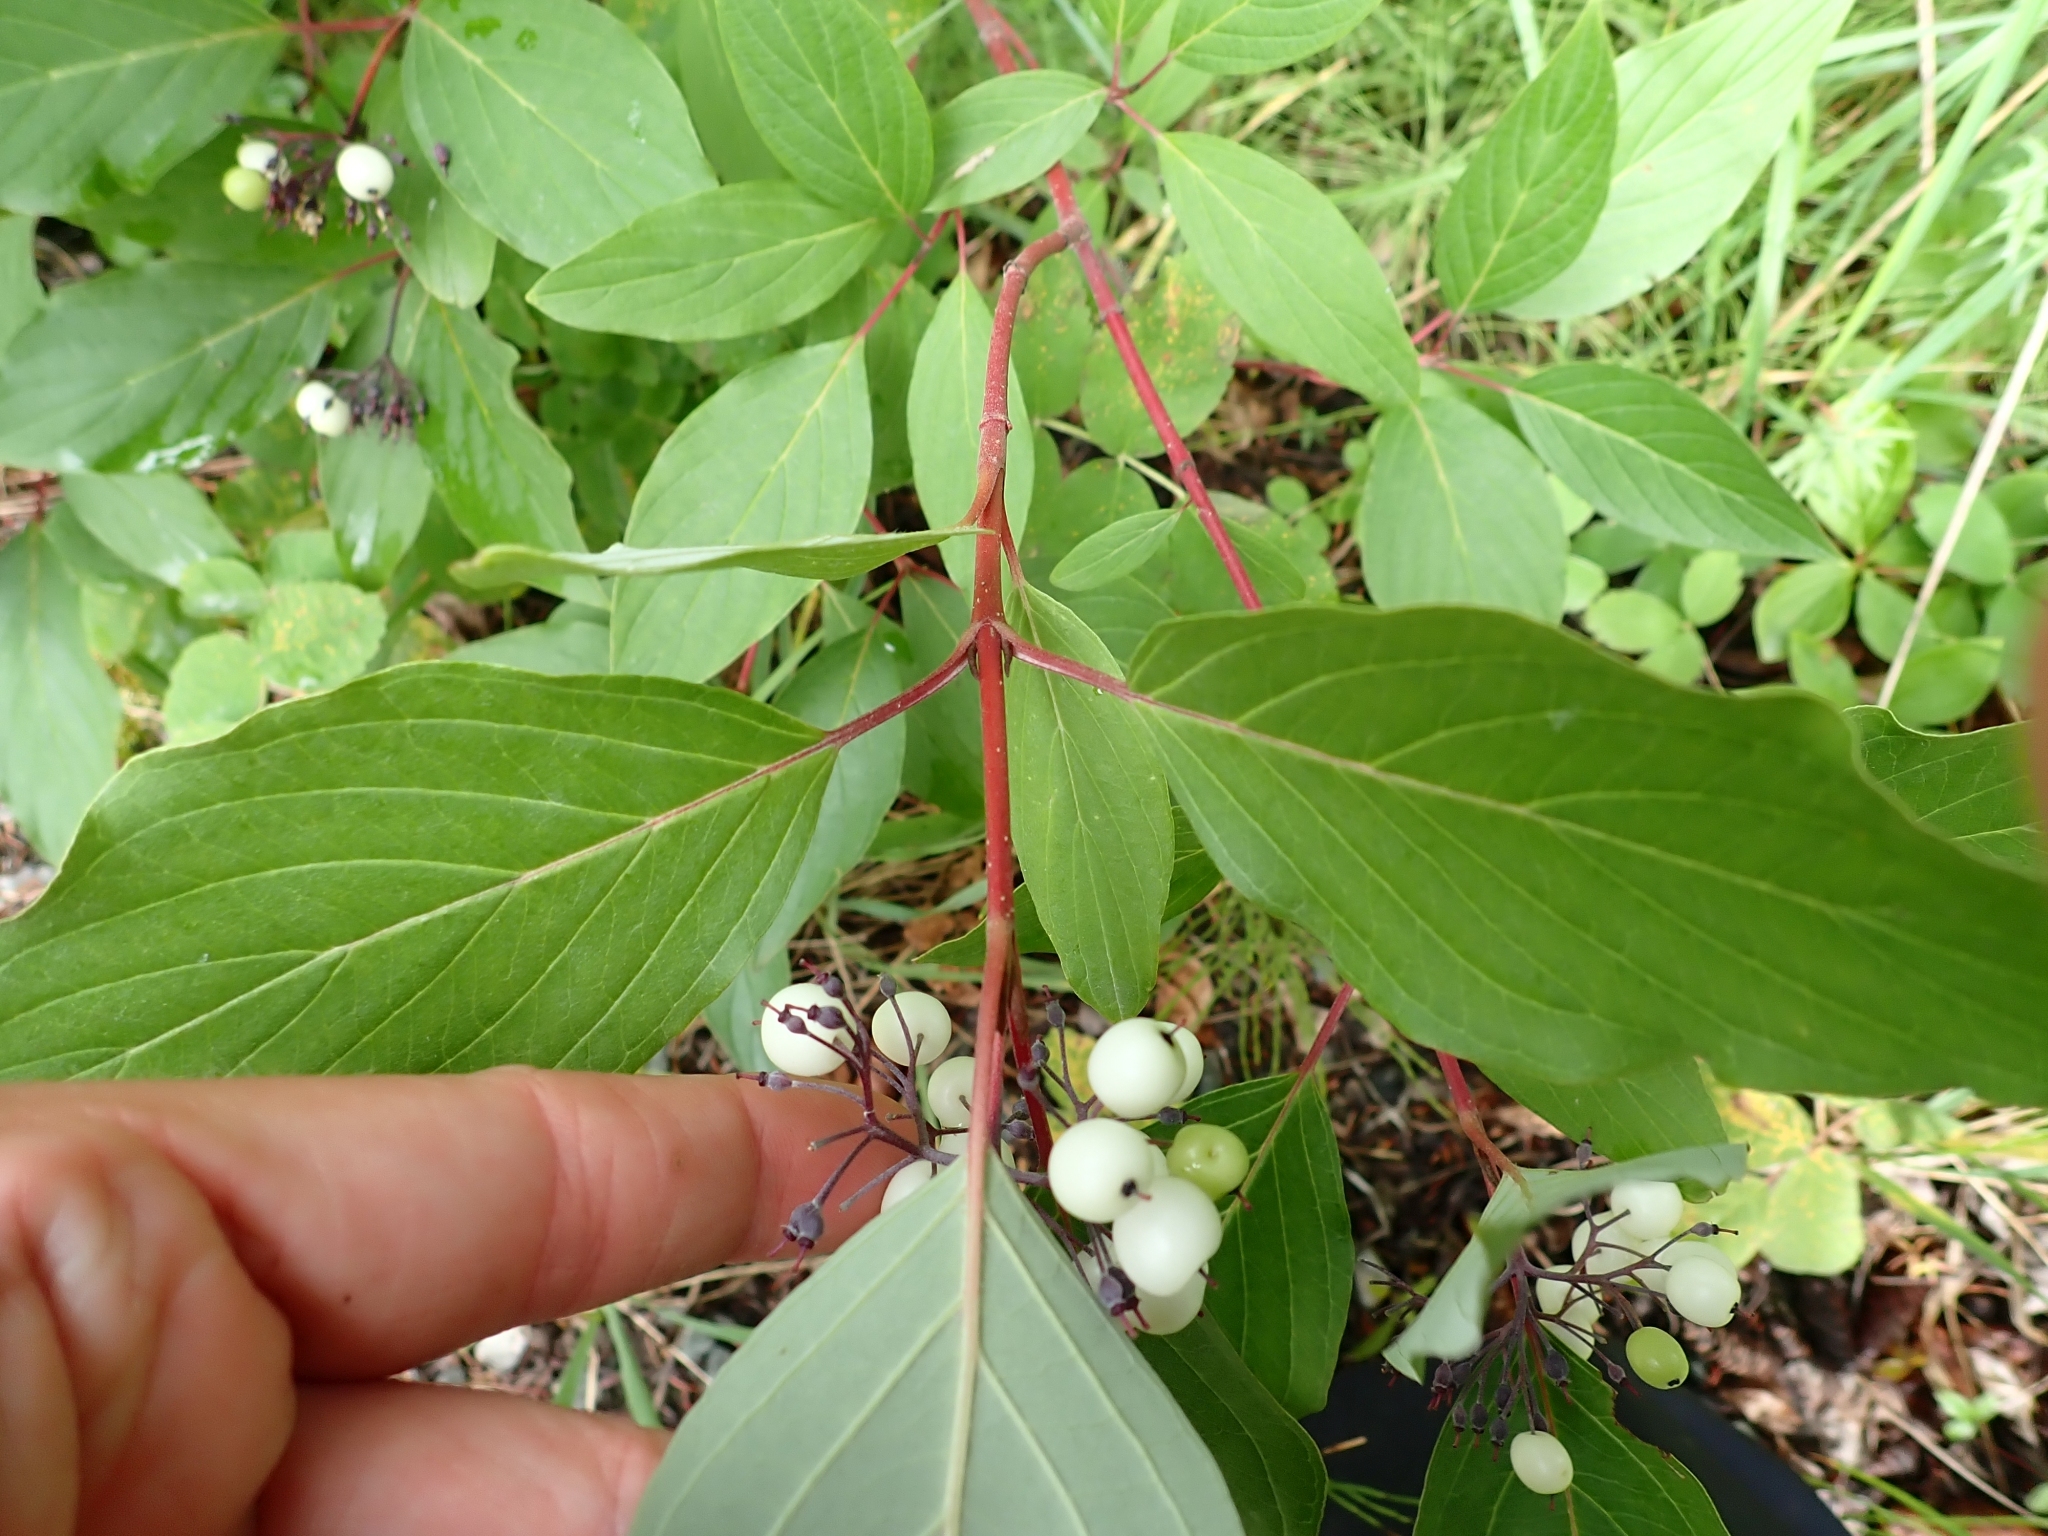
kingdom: Plantae
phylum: Tracheophyta
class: Magnoliopsida
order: Cornales
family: Cornaceae
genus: Cornus
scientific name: Cornus sericea
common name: Red-osier dogwood
